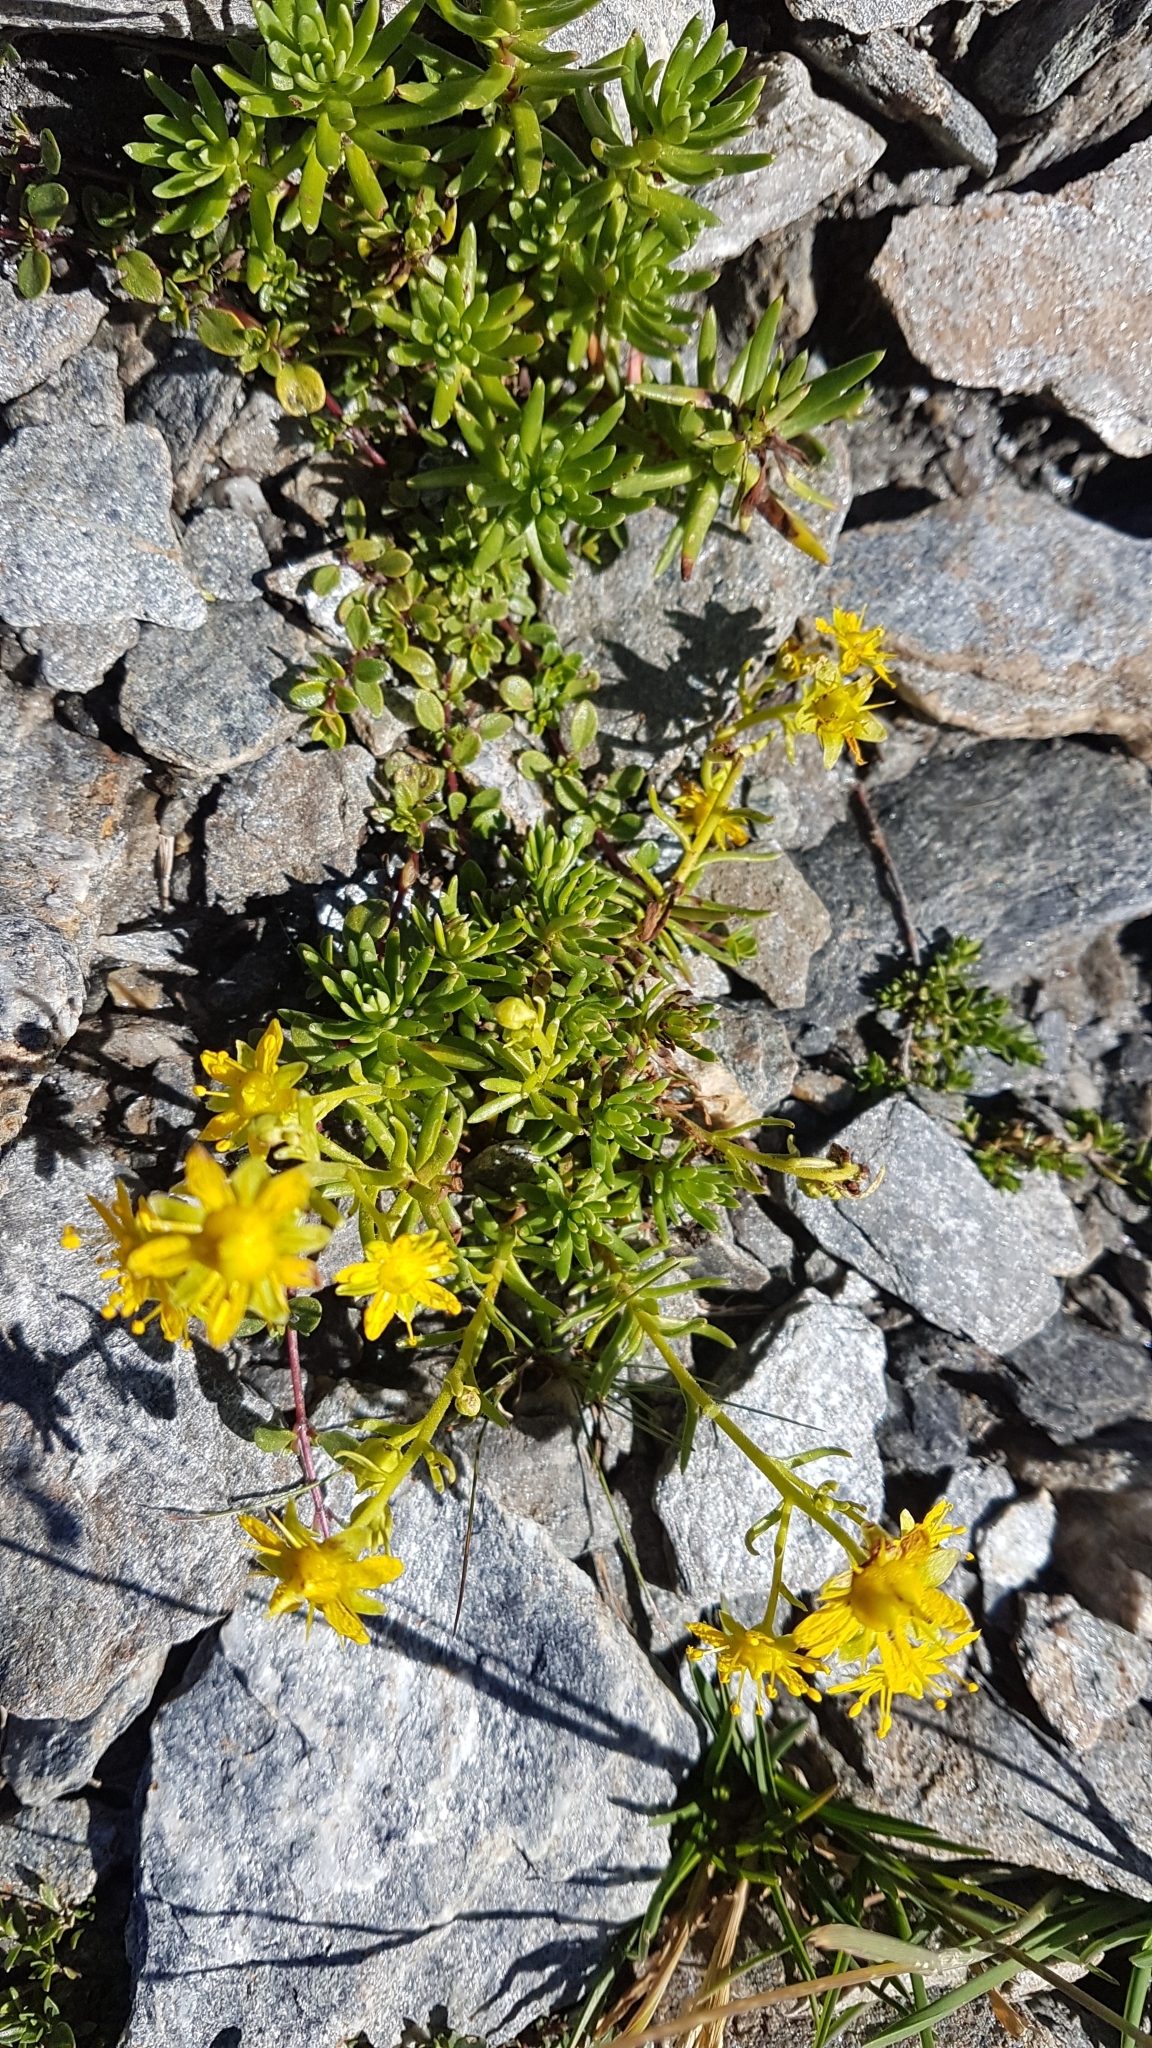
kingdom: Plantae
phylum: Tracheophyta
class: Magnoliopsida
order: Saxifragales
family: Saxifragaceae
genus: Saxifraga
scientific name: Saxifraga aizoides
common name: Yellow mountain saxifrage
